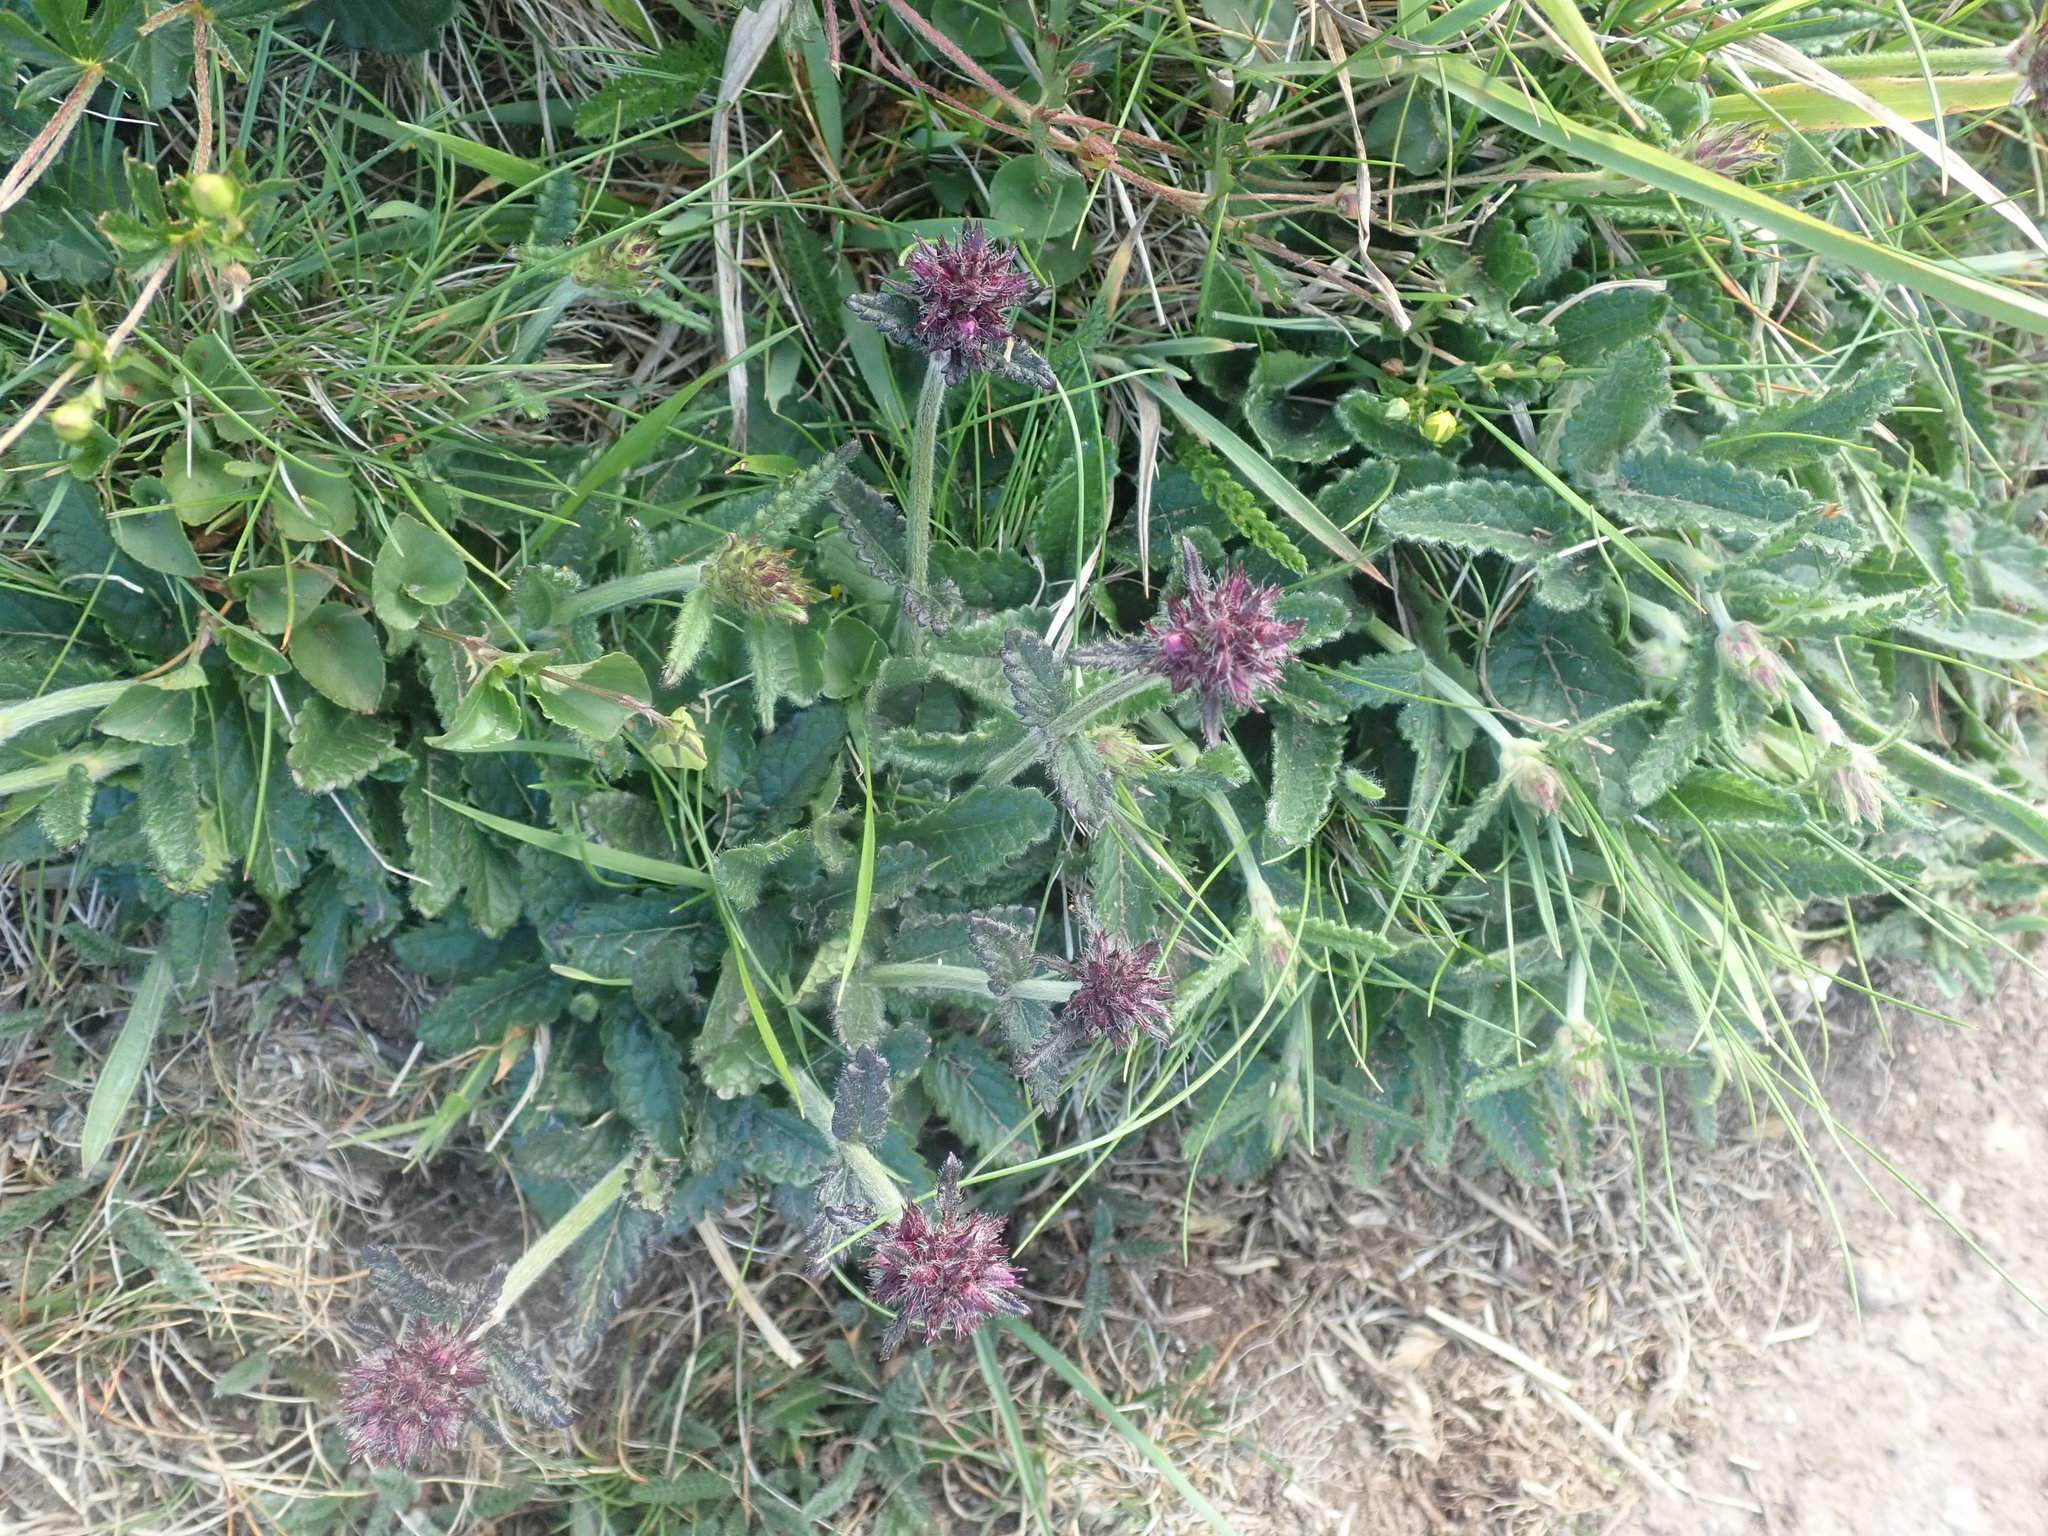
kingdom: Plantae
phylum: Tracheophyta
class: Magnoliopsida
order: Lamiales
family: Lamiaceae
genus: Betonica
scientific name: Betonica officinalis
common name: Bishop's-wort
